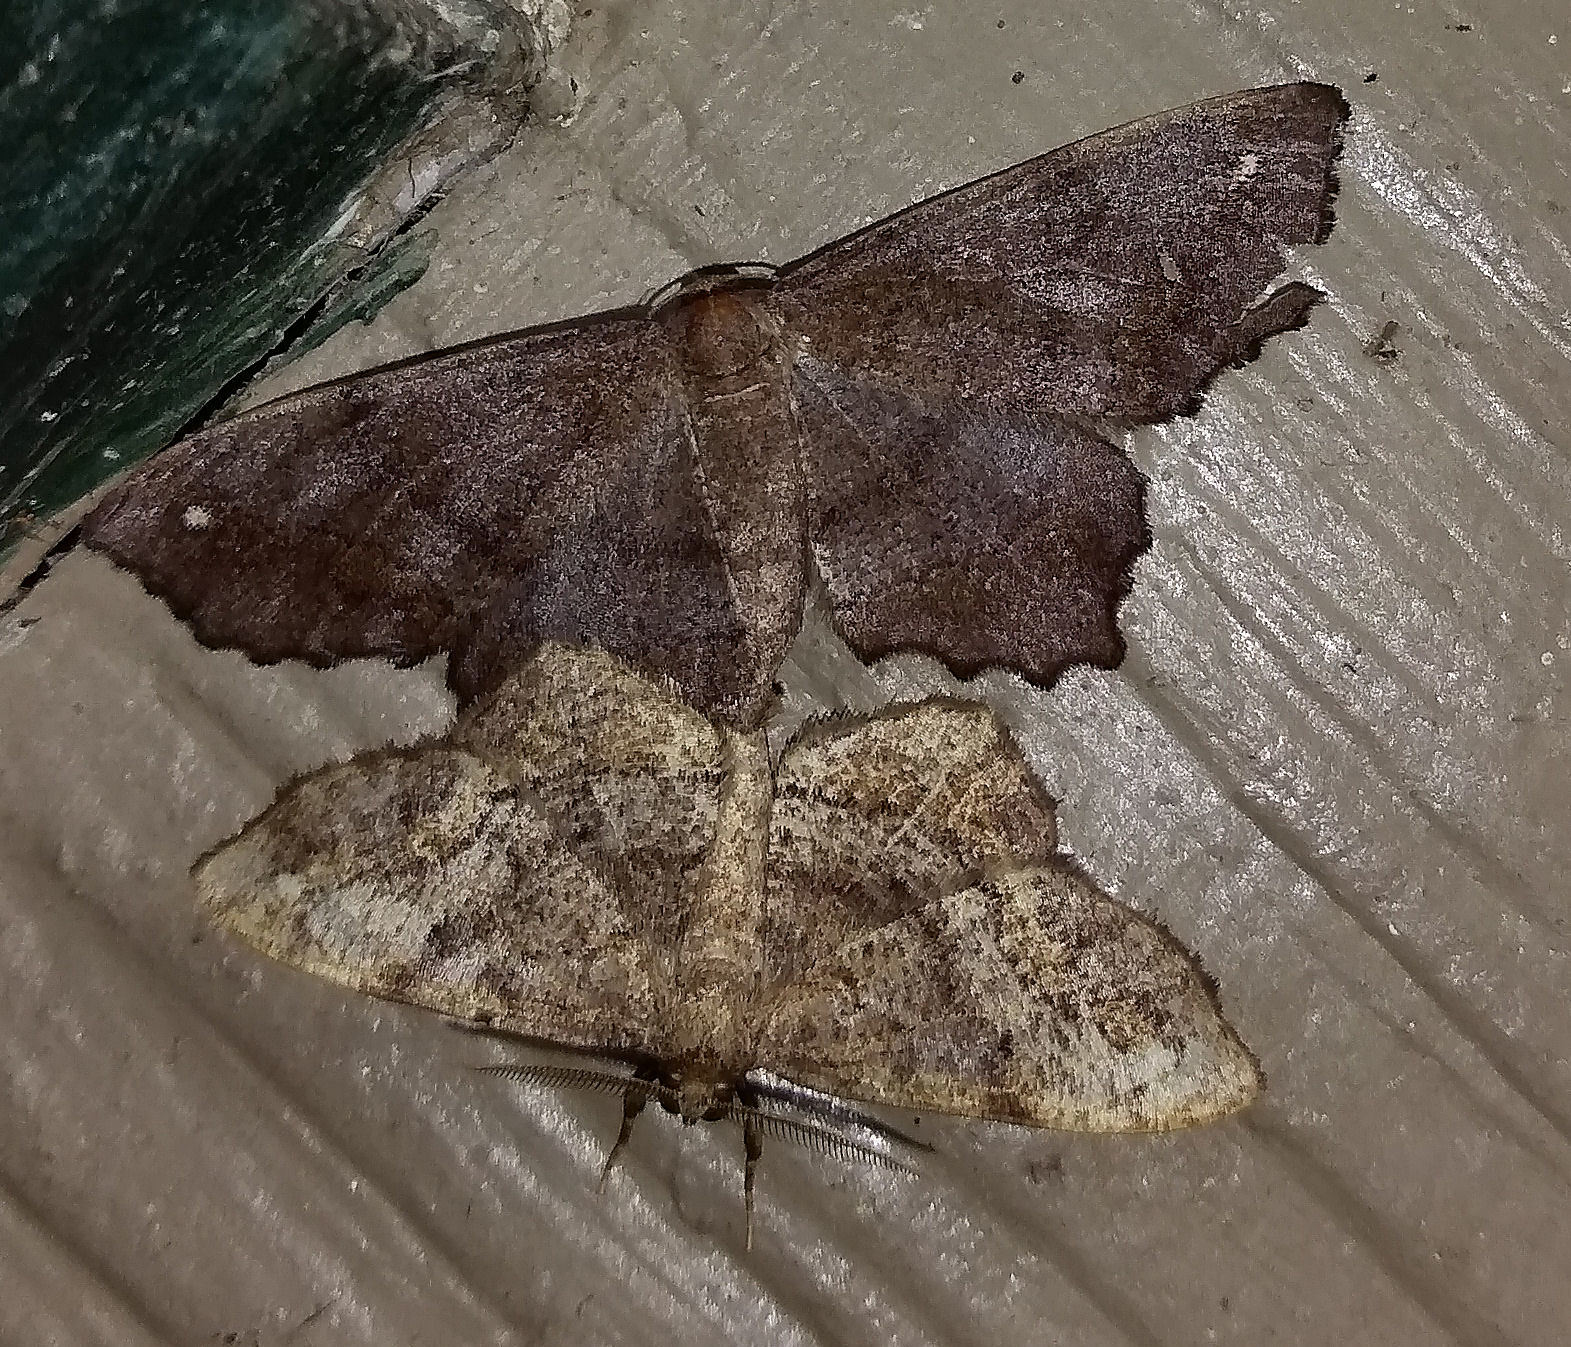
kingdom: Animalia
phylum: Arthropoda
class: Insecta
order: Lepidoptera
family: Geometridae
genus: Hypagyrtis
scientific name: Hypagyrtis esther
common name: Esther moth
